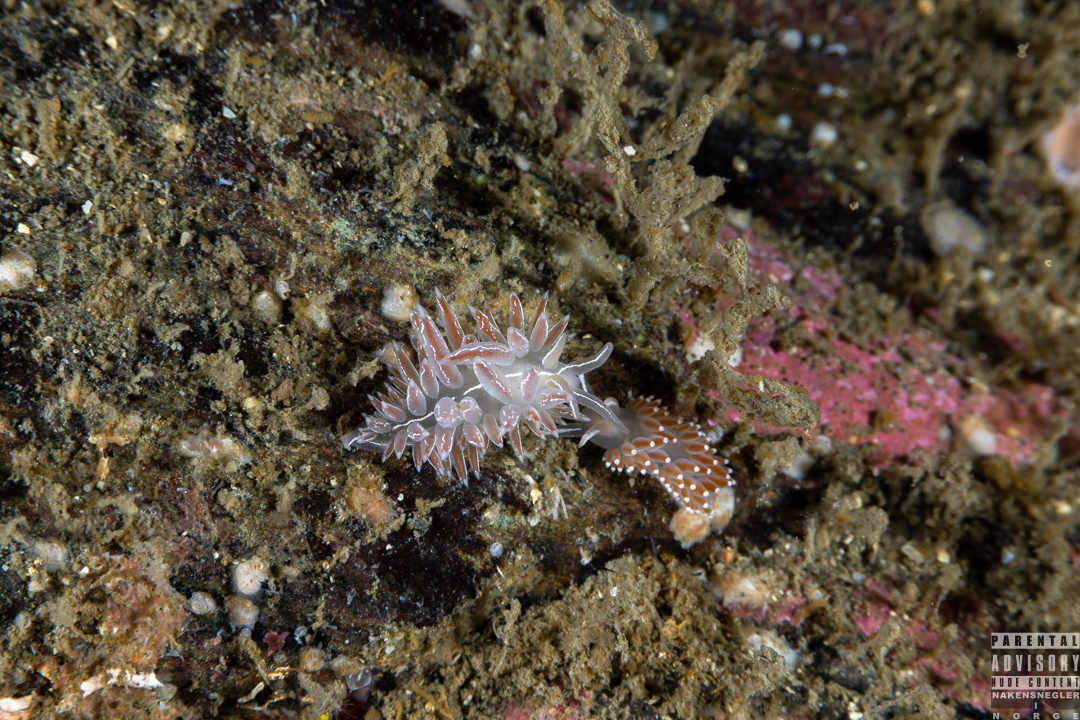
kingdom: Animalia
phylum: Mollusca
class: Gastropoda
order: Nudibranchia
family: Coryphellidae
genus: Coryphella
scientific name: Coryphella chriskaugei
